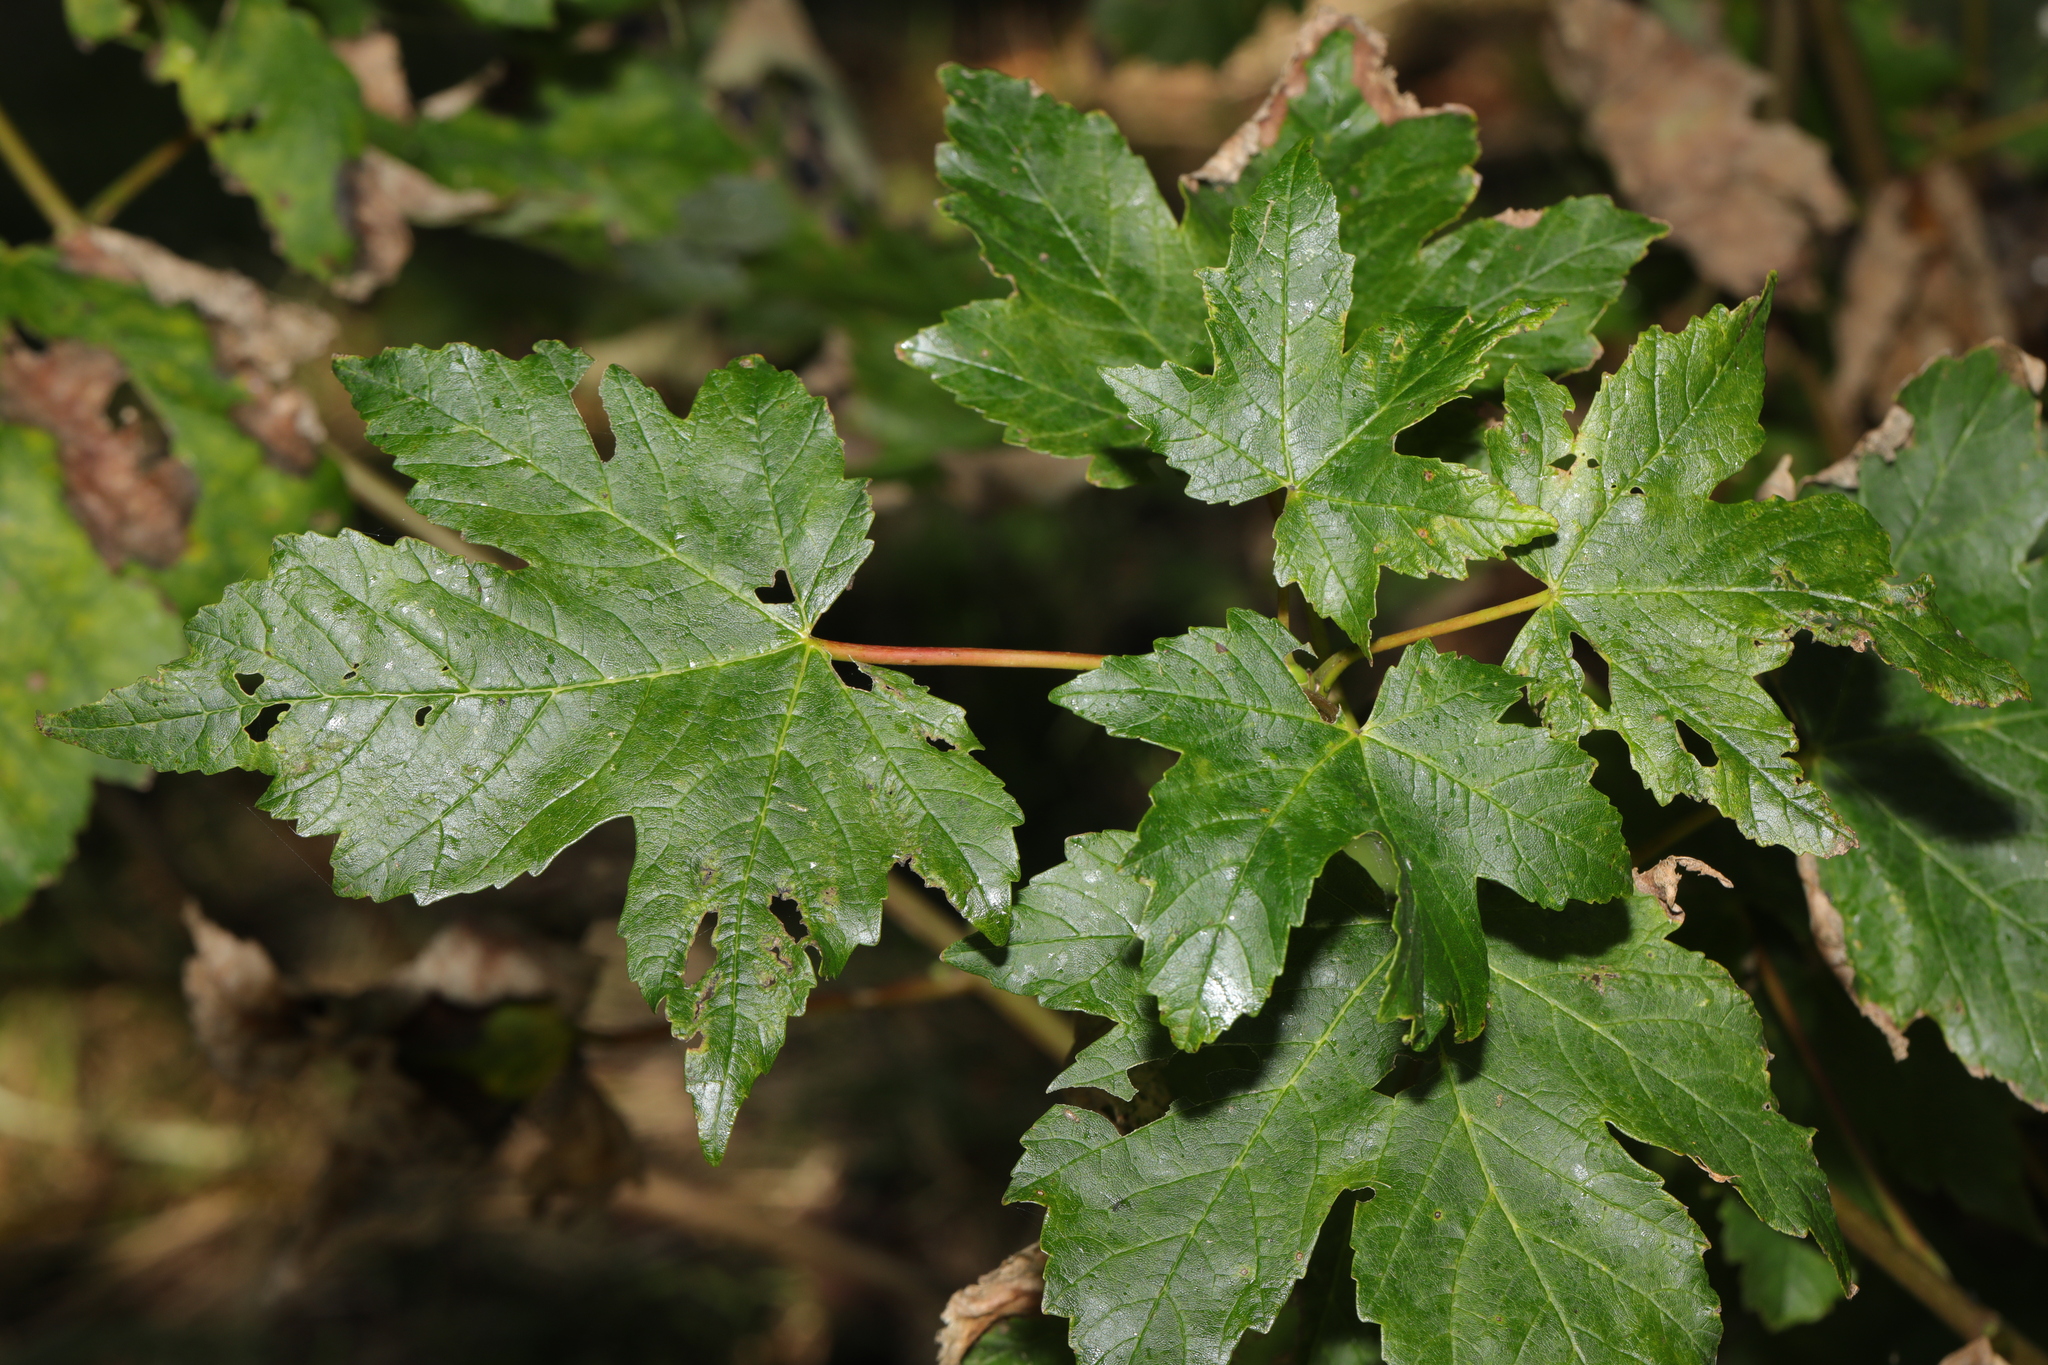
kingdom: Plantae
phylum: Tracheophyta
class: Magnoliopsida
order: Sapindales
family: Sapindaceae
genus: Acer
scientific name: Acer pseudoplatanus
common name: Sycamore
